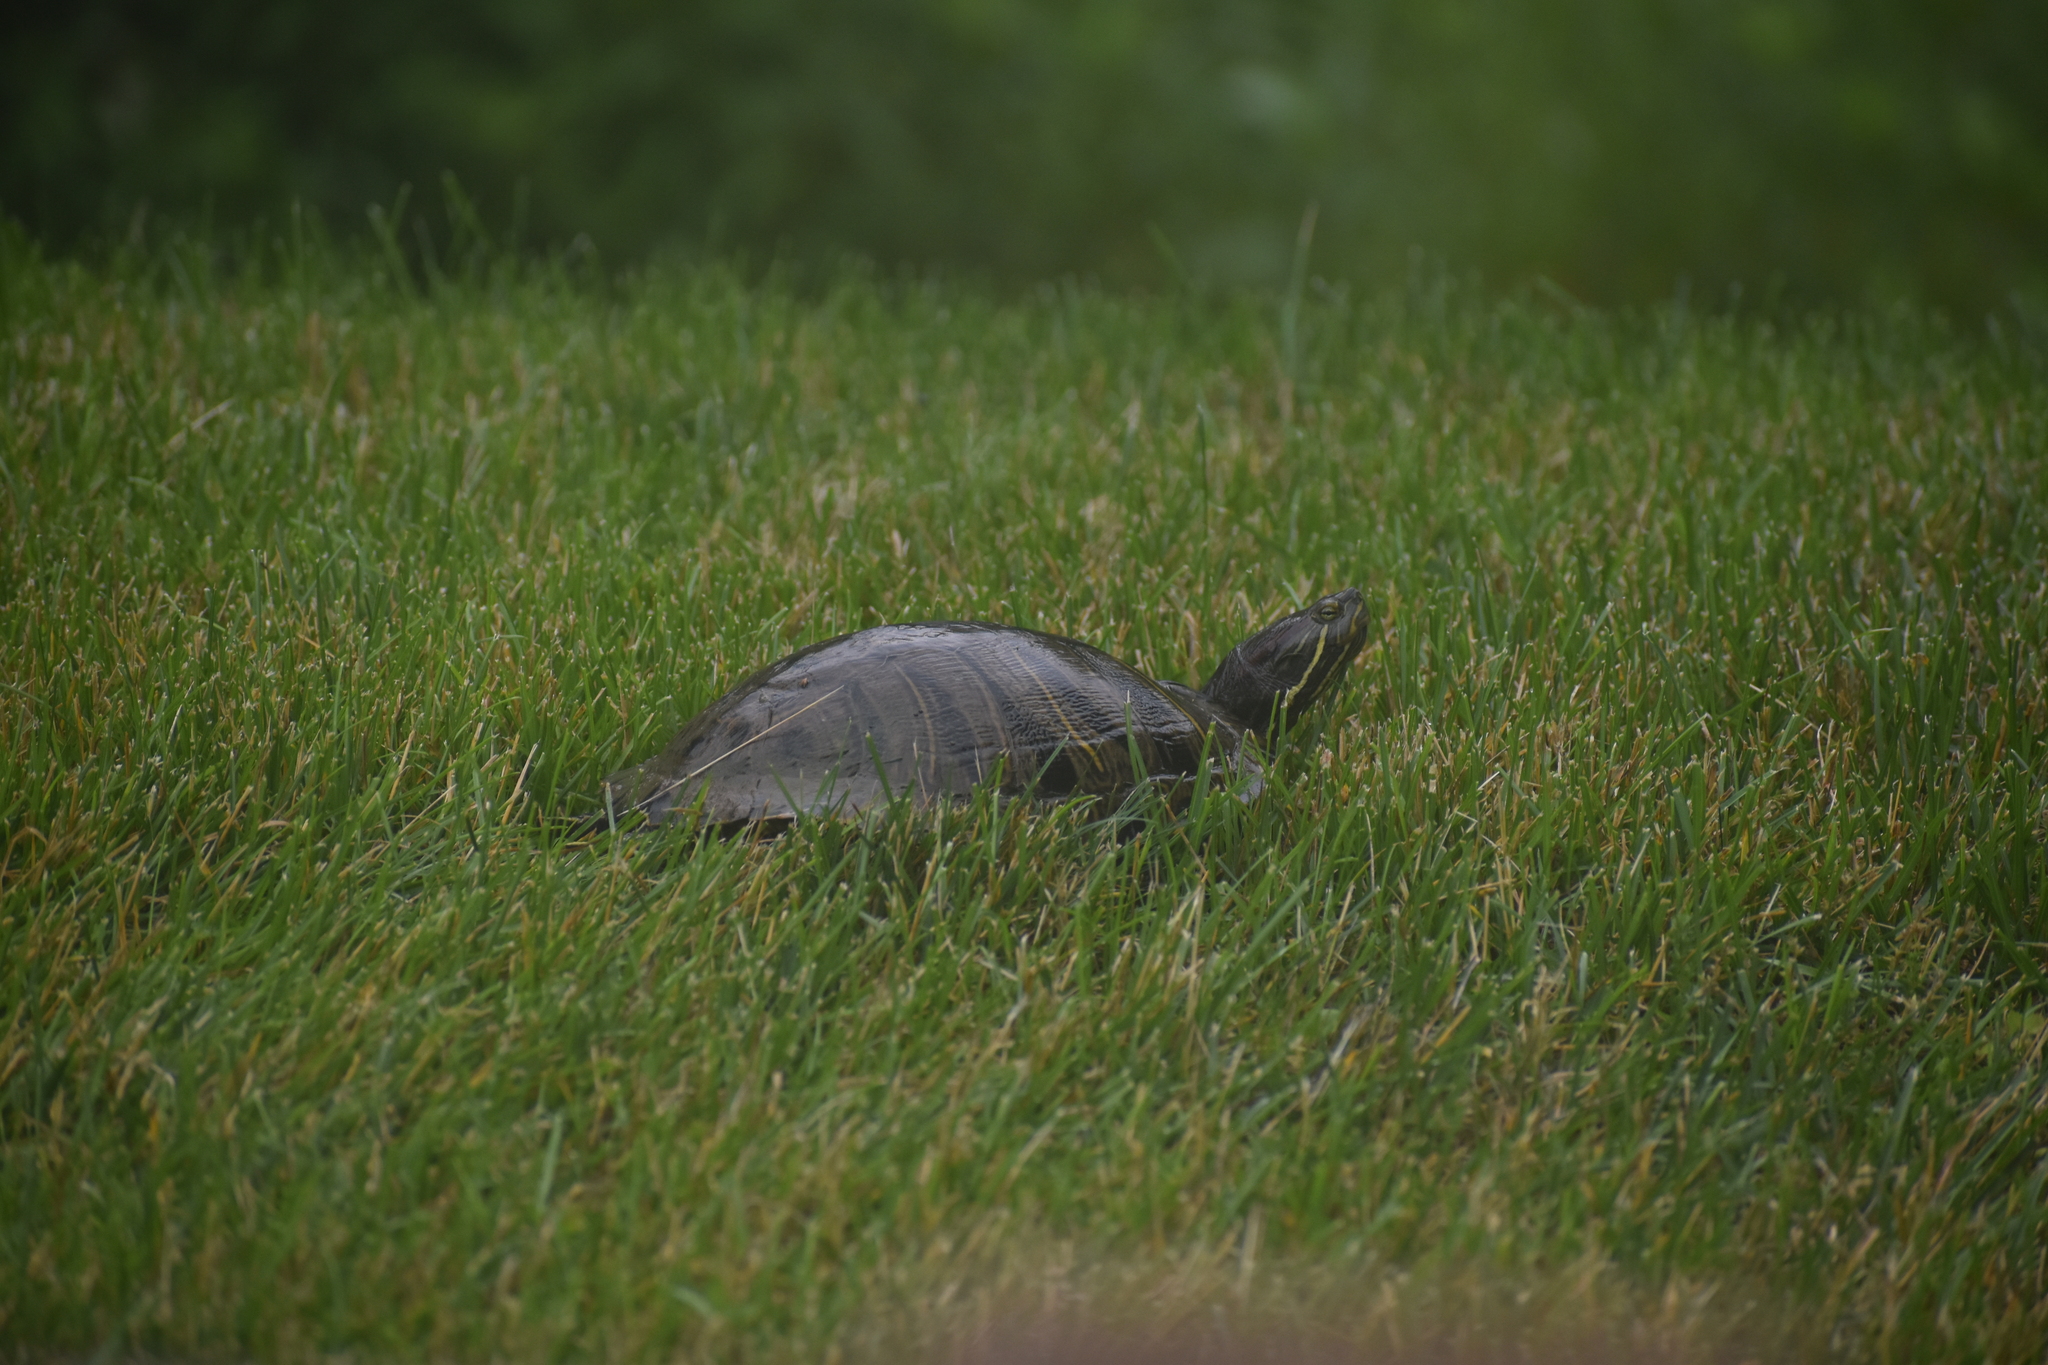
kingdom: Animalia
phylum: Chordata
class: Testudines
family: Emydidae
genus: Trachemys
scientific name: Trachemys scripta
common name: Slider
